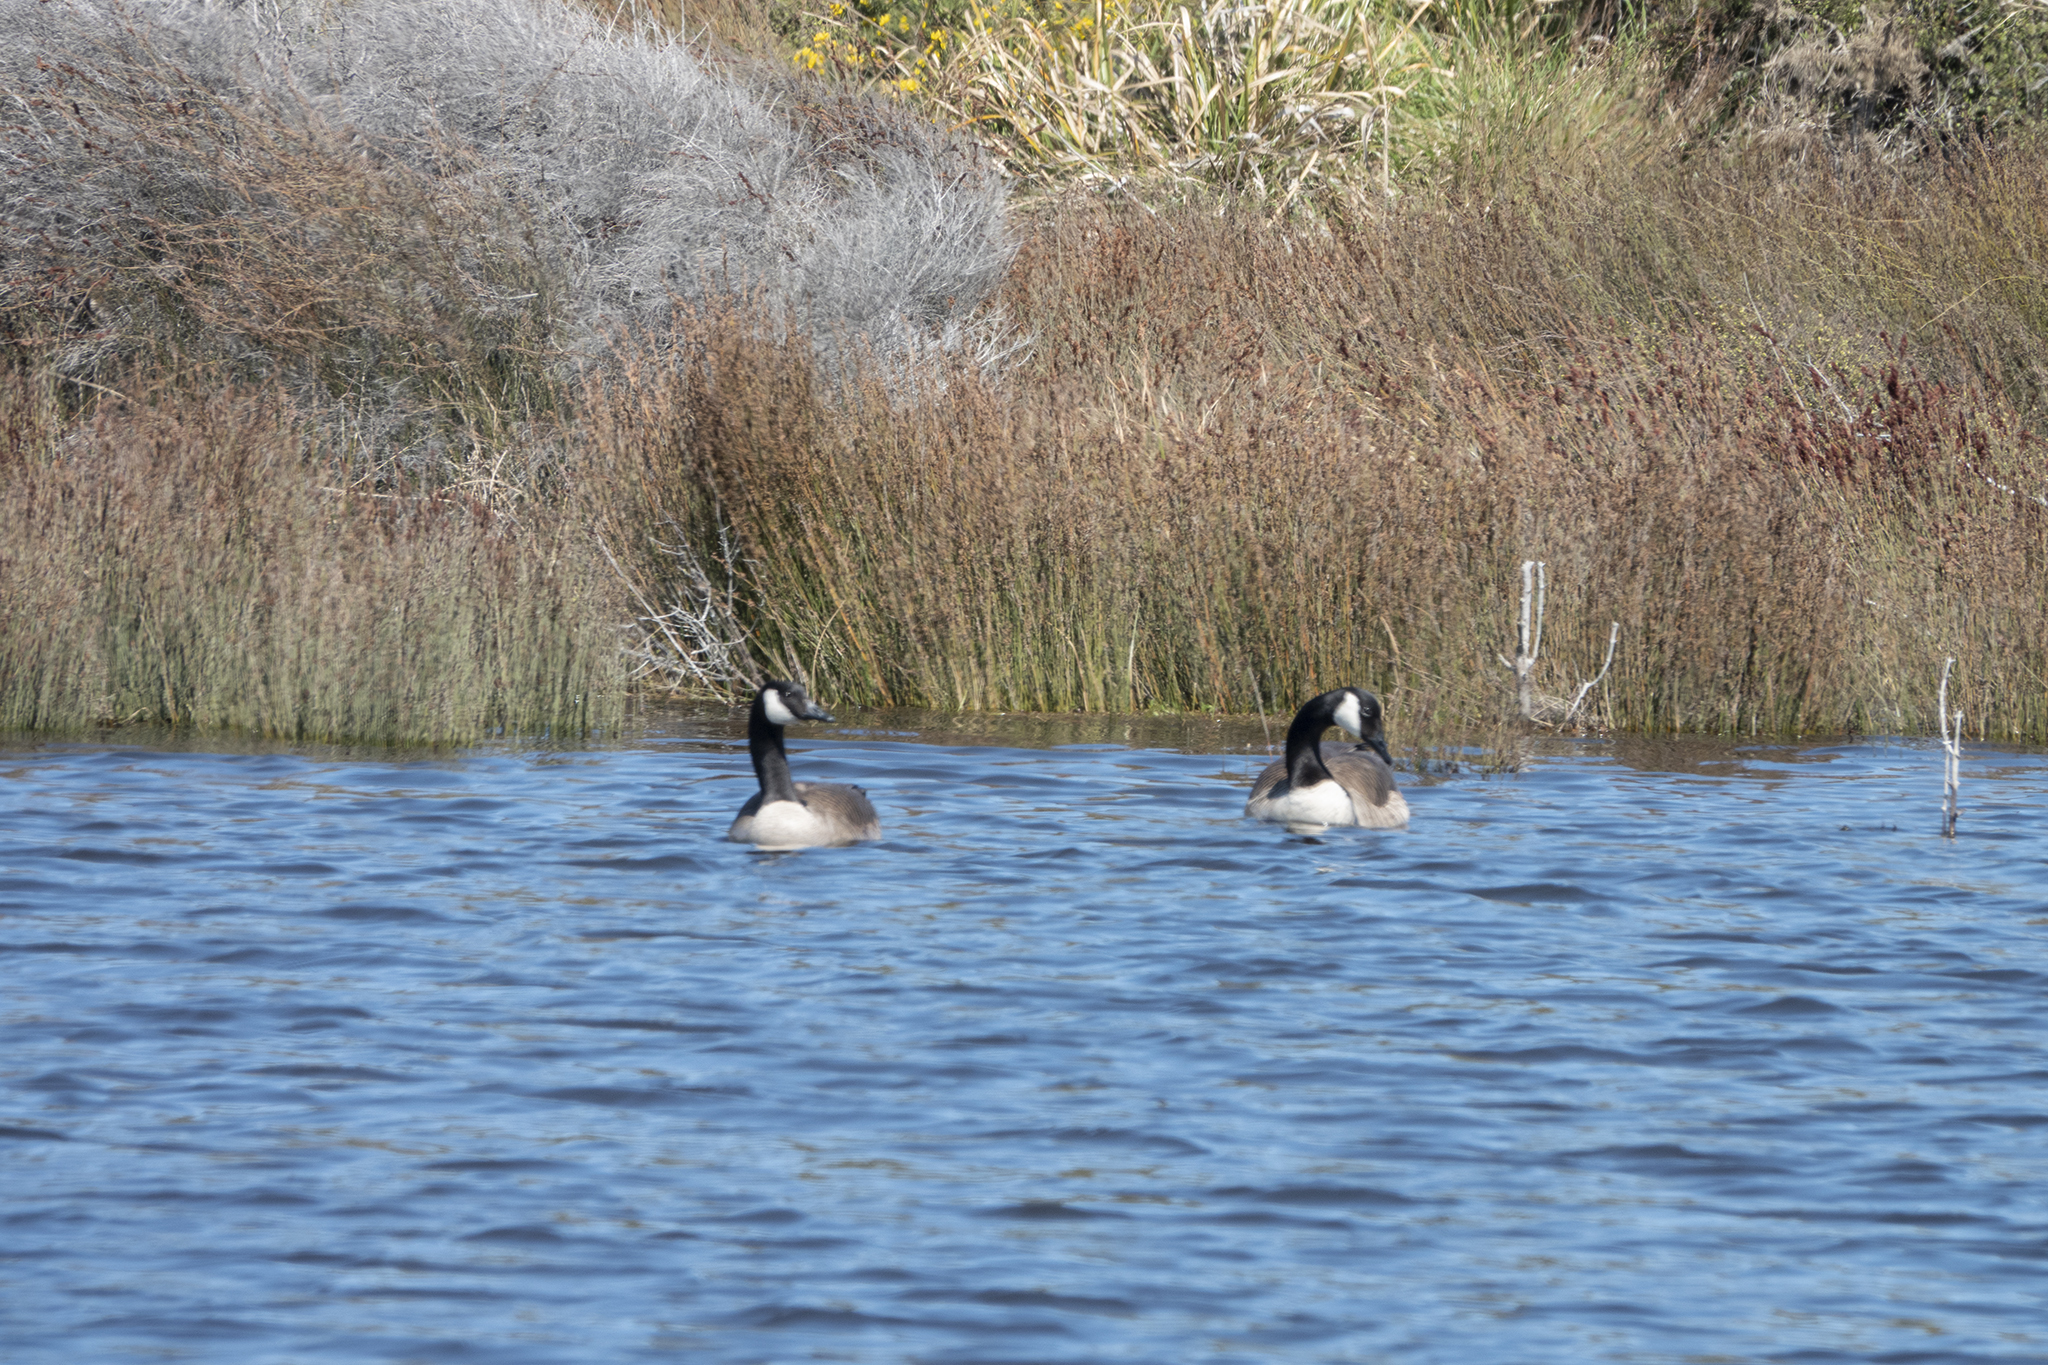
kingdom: Animalia
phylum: Chordata
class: Aves
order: Anseriformes
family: Anatidae
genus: Branta
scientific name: Branta canadensis
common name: Canada goose
